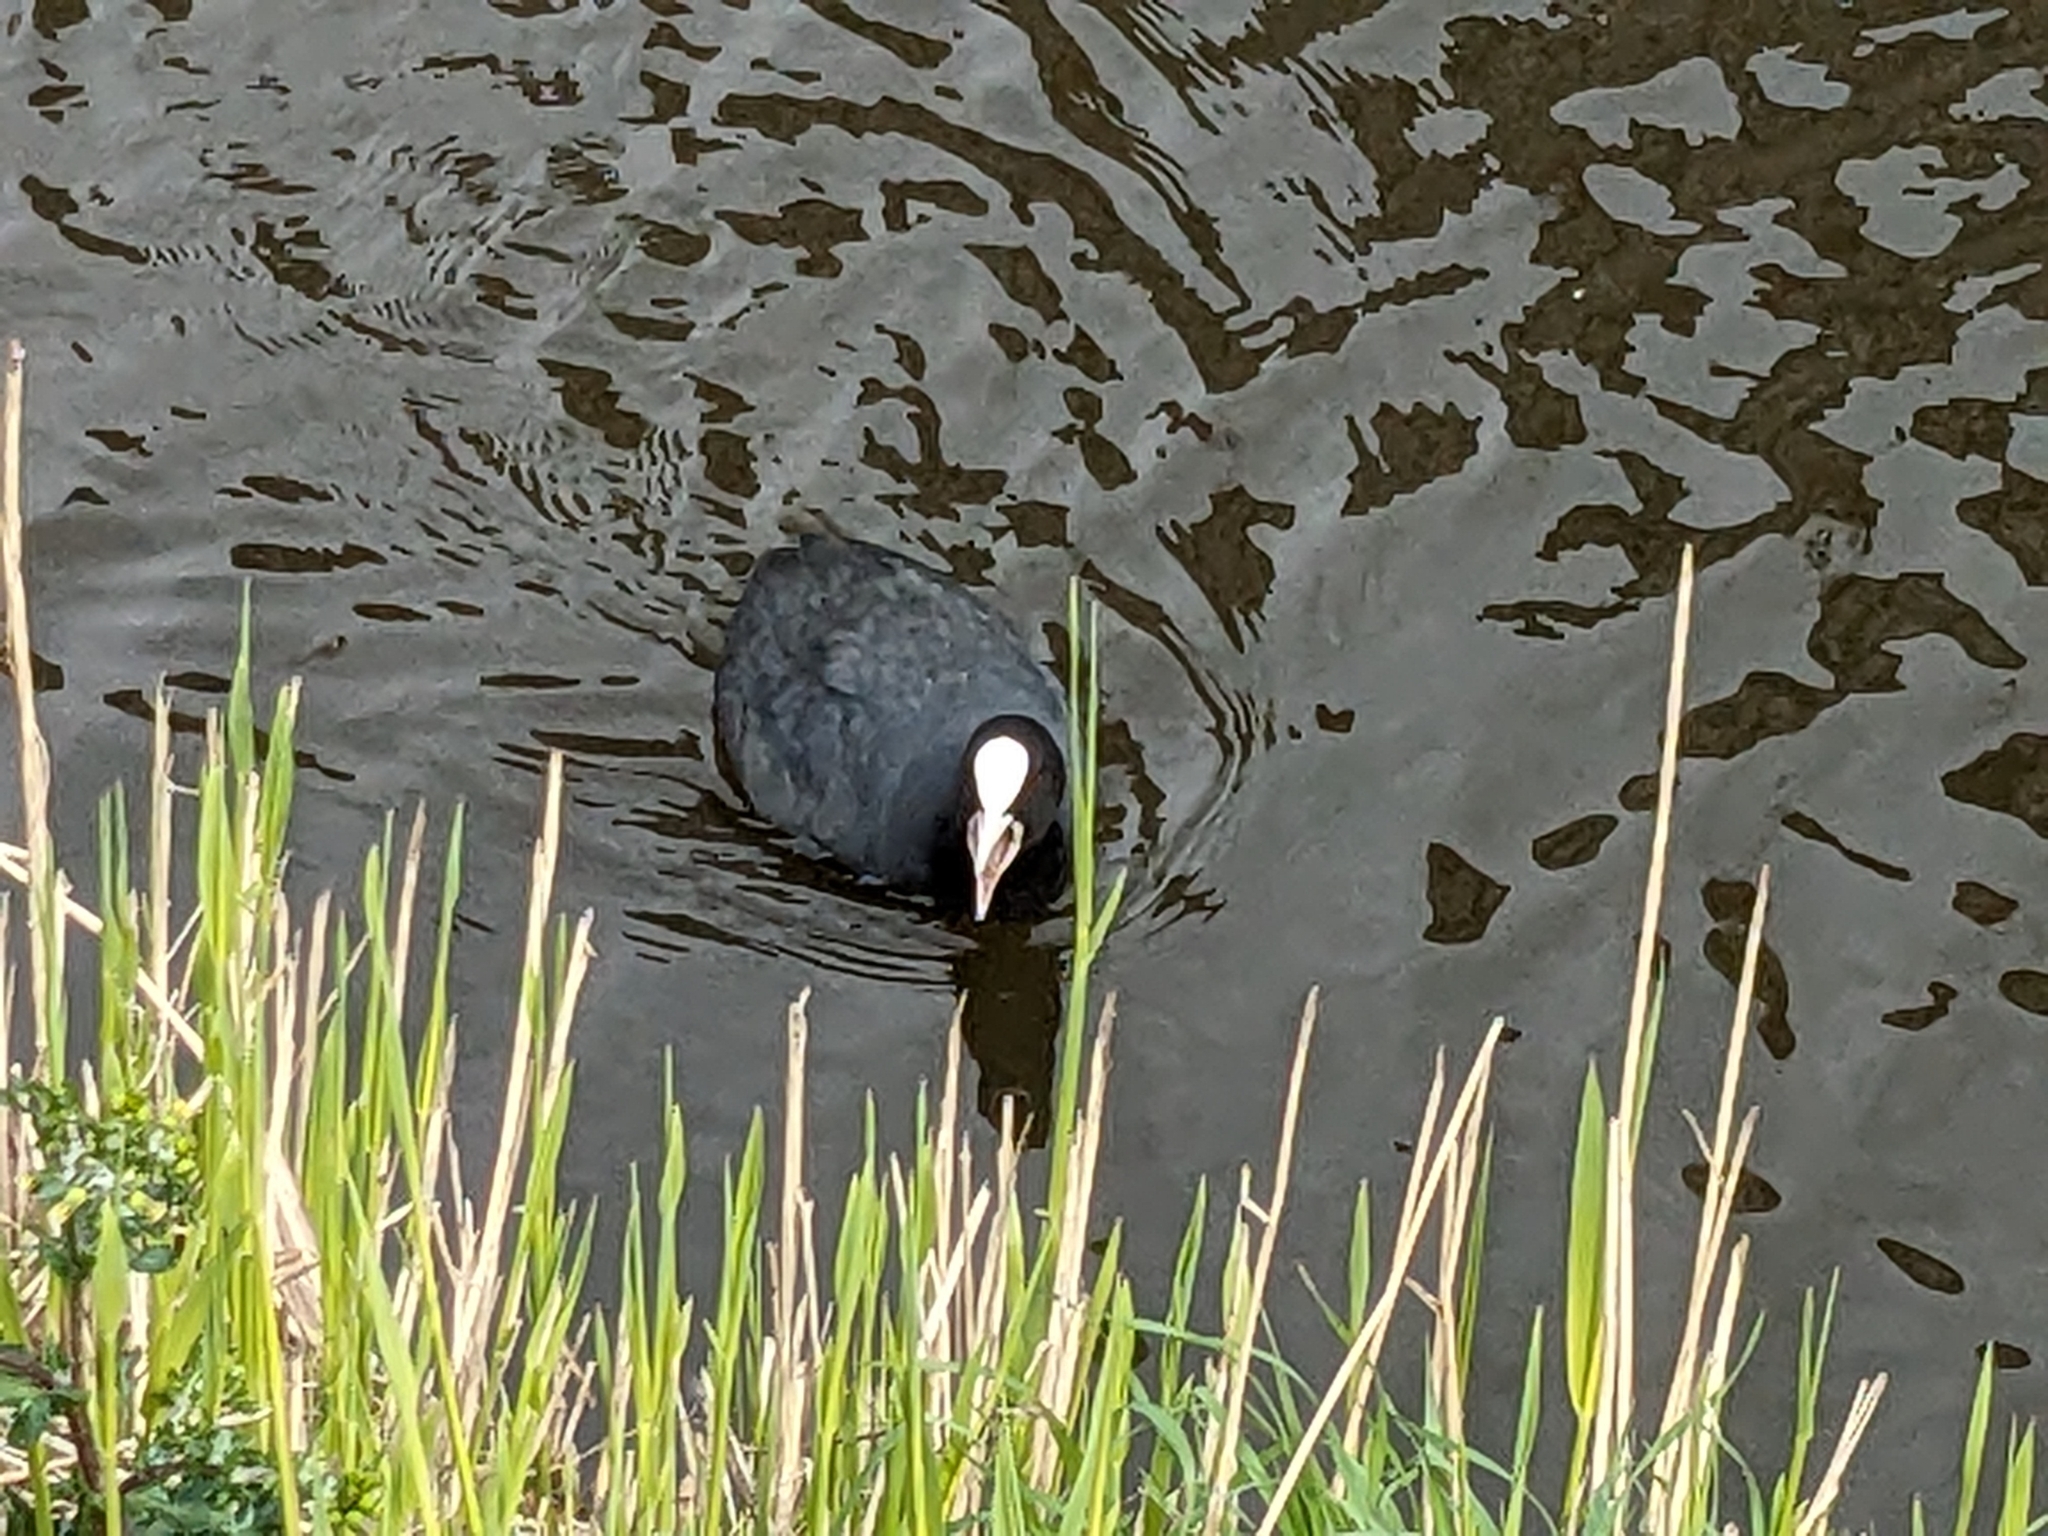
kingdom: Animalia
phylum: Chordata
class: Aves
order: Gruiformes
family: Rallidae
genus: Fulica
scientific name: Fulica atra
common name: Eurasian coot
